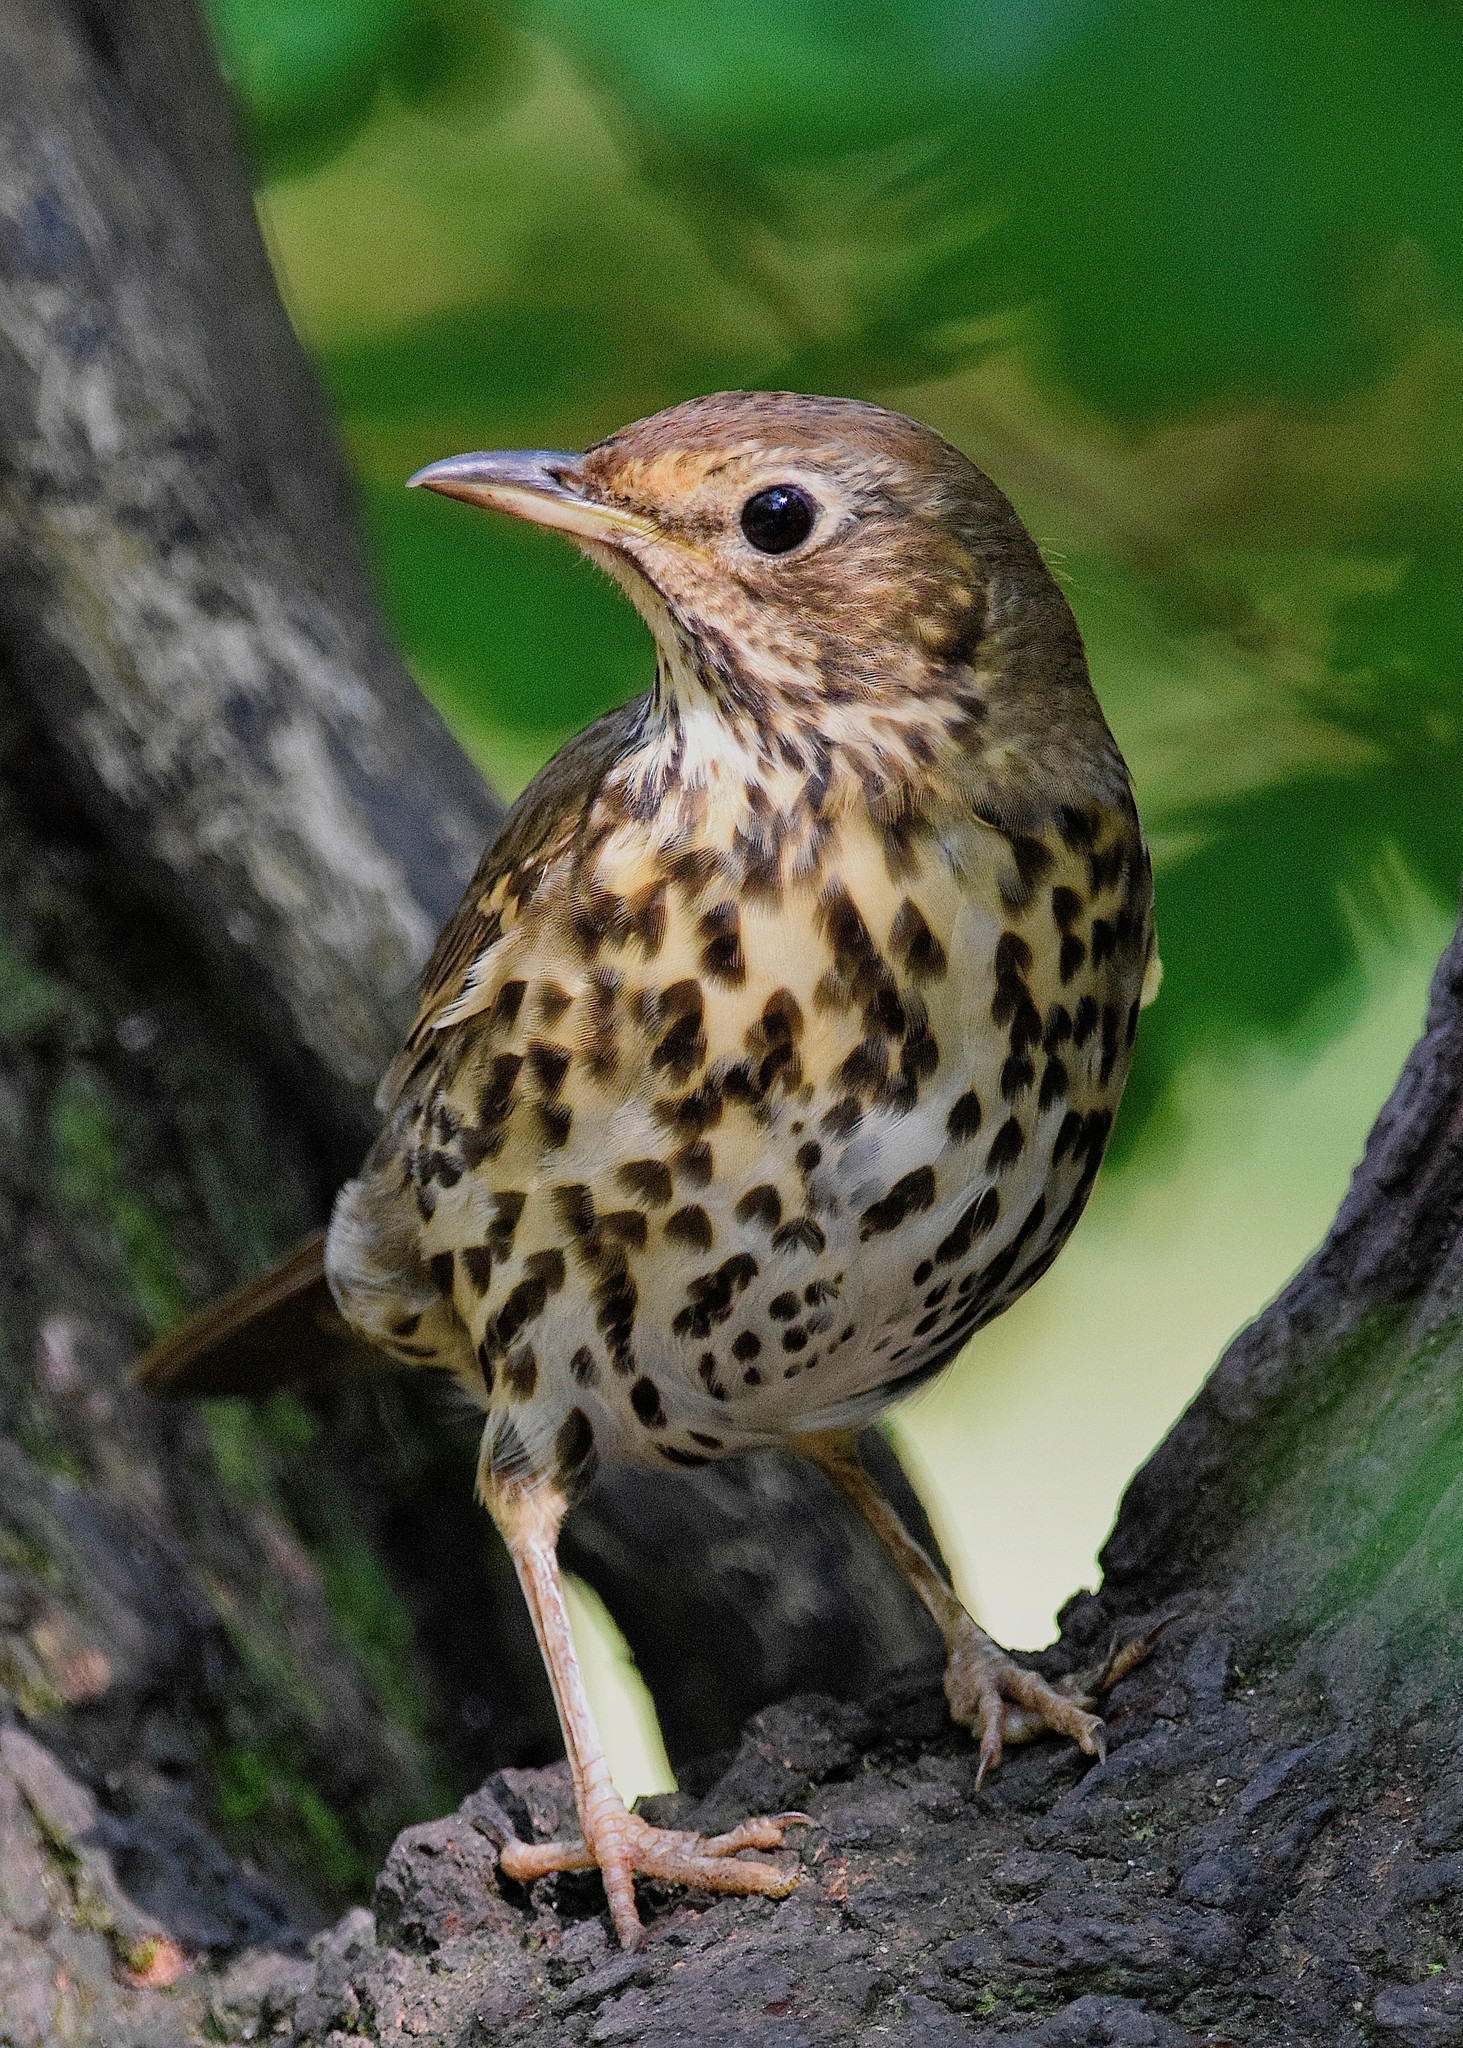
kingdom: Animalia
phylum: Chordata
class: Aves
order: Passeriformes
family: Turdidae
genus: Turdus
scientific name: Turdus philomelos
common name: Song thrush
